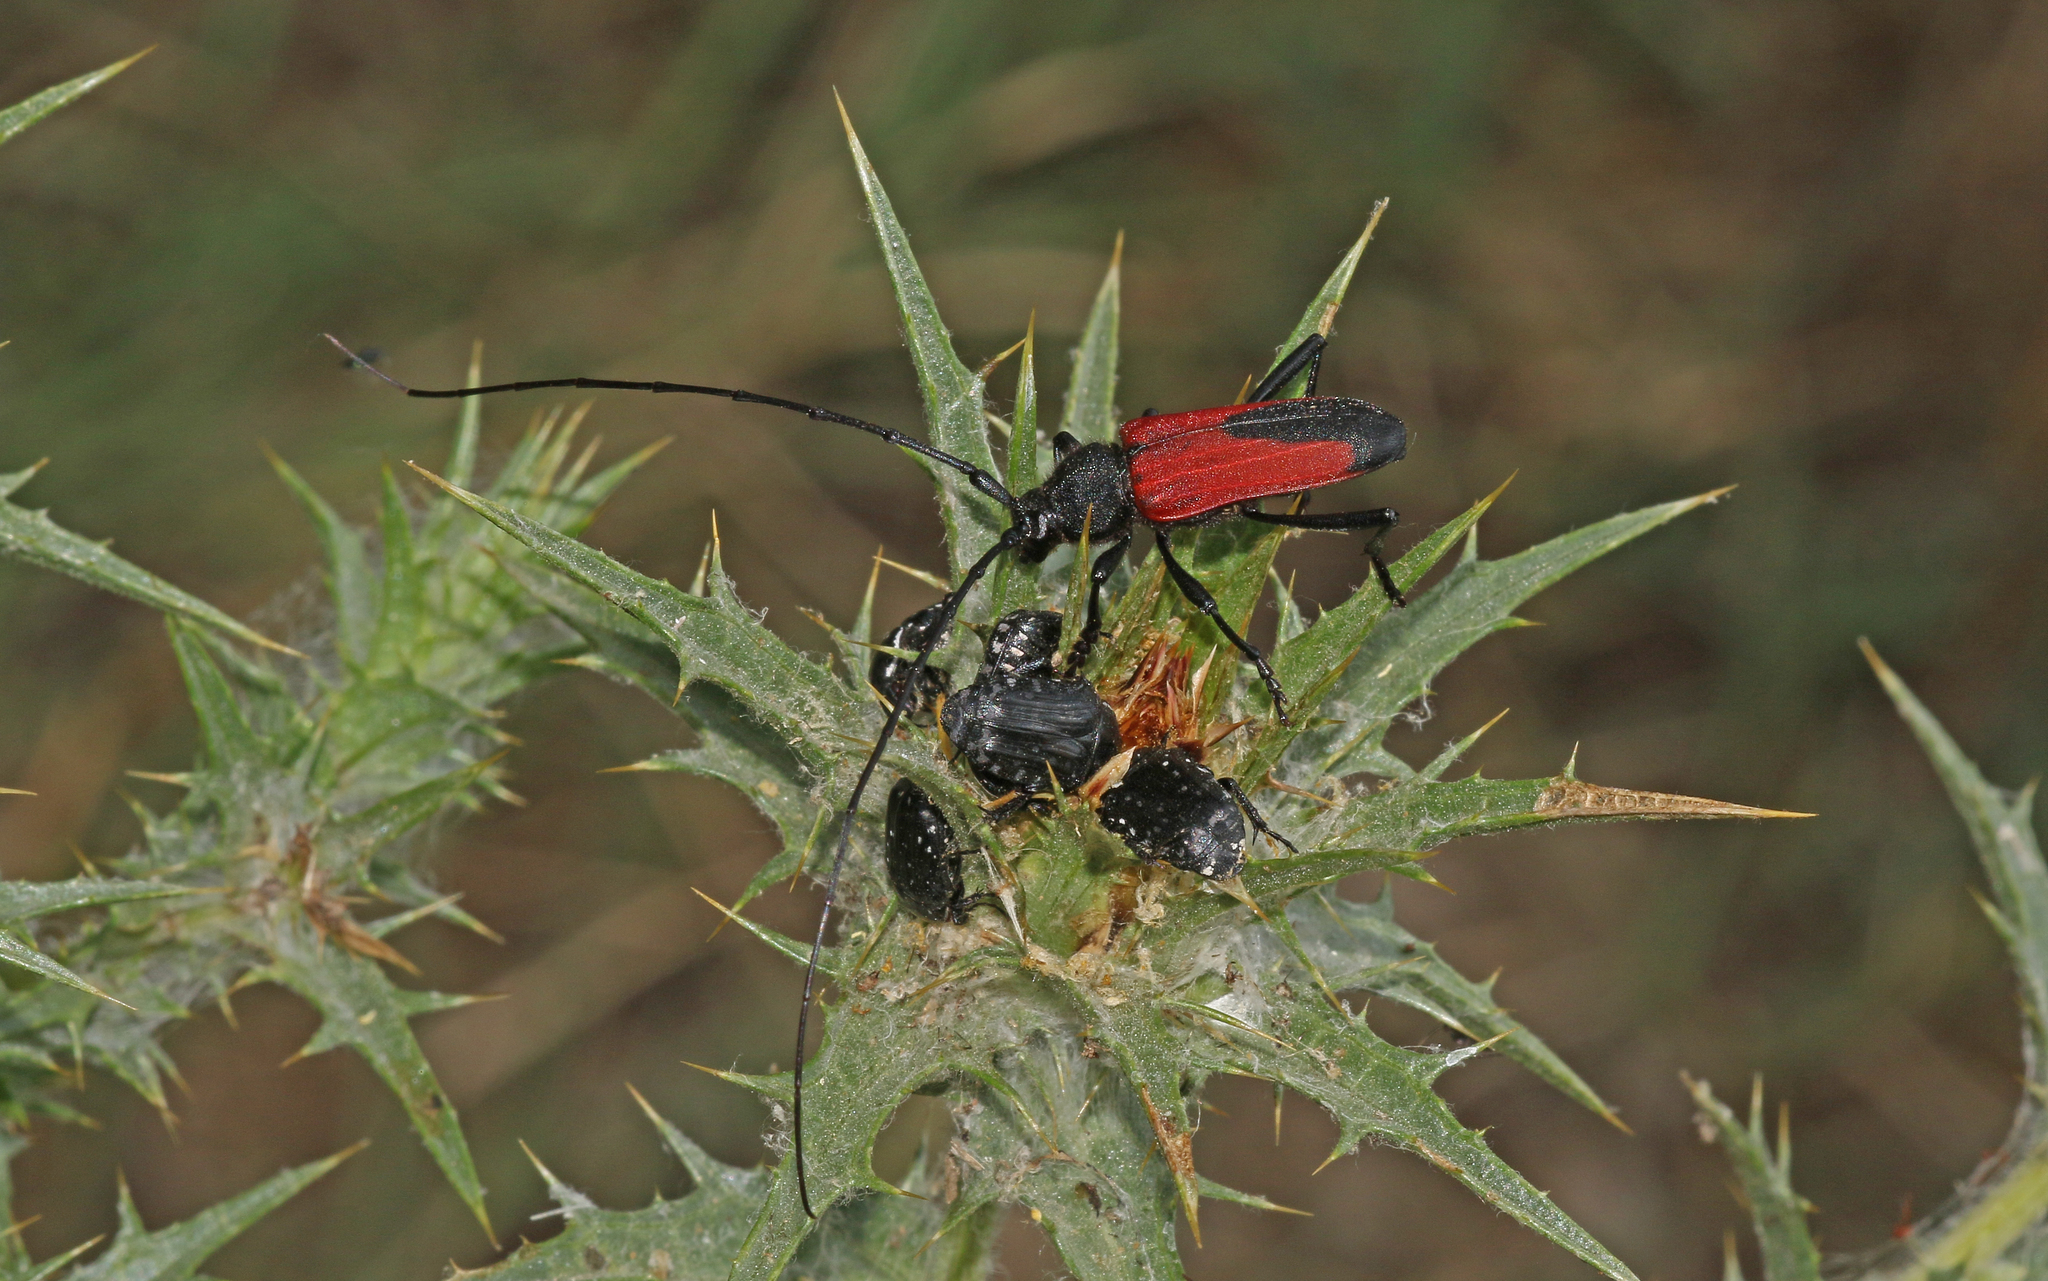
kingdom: Animalia
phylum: Arthropoda
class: Insecta
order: Coleoptera
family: Cerambycidae
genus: Purpuricenus
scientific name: Purpuricenus budensis
